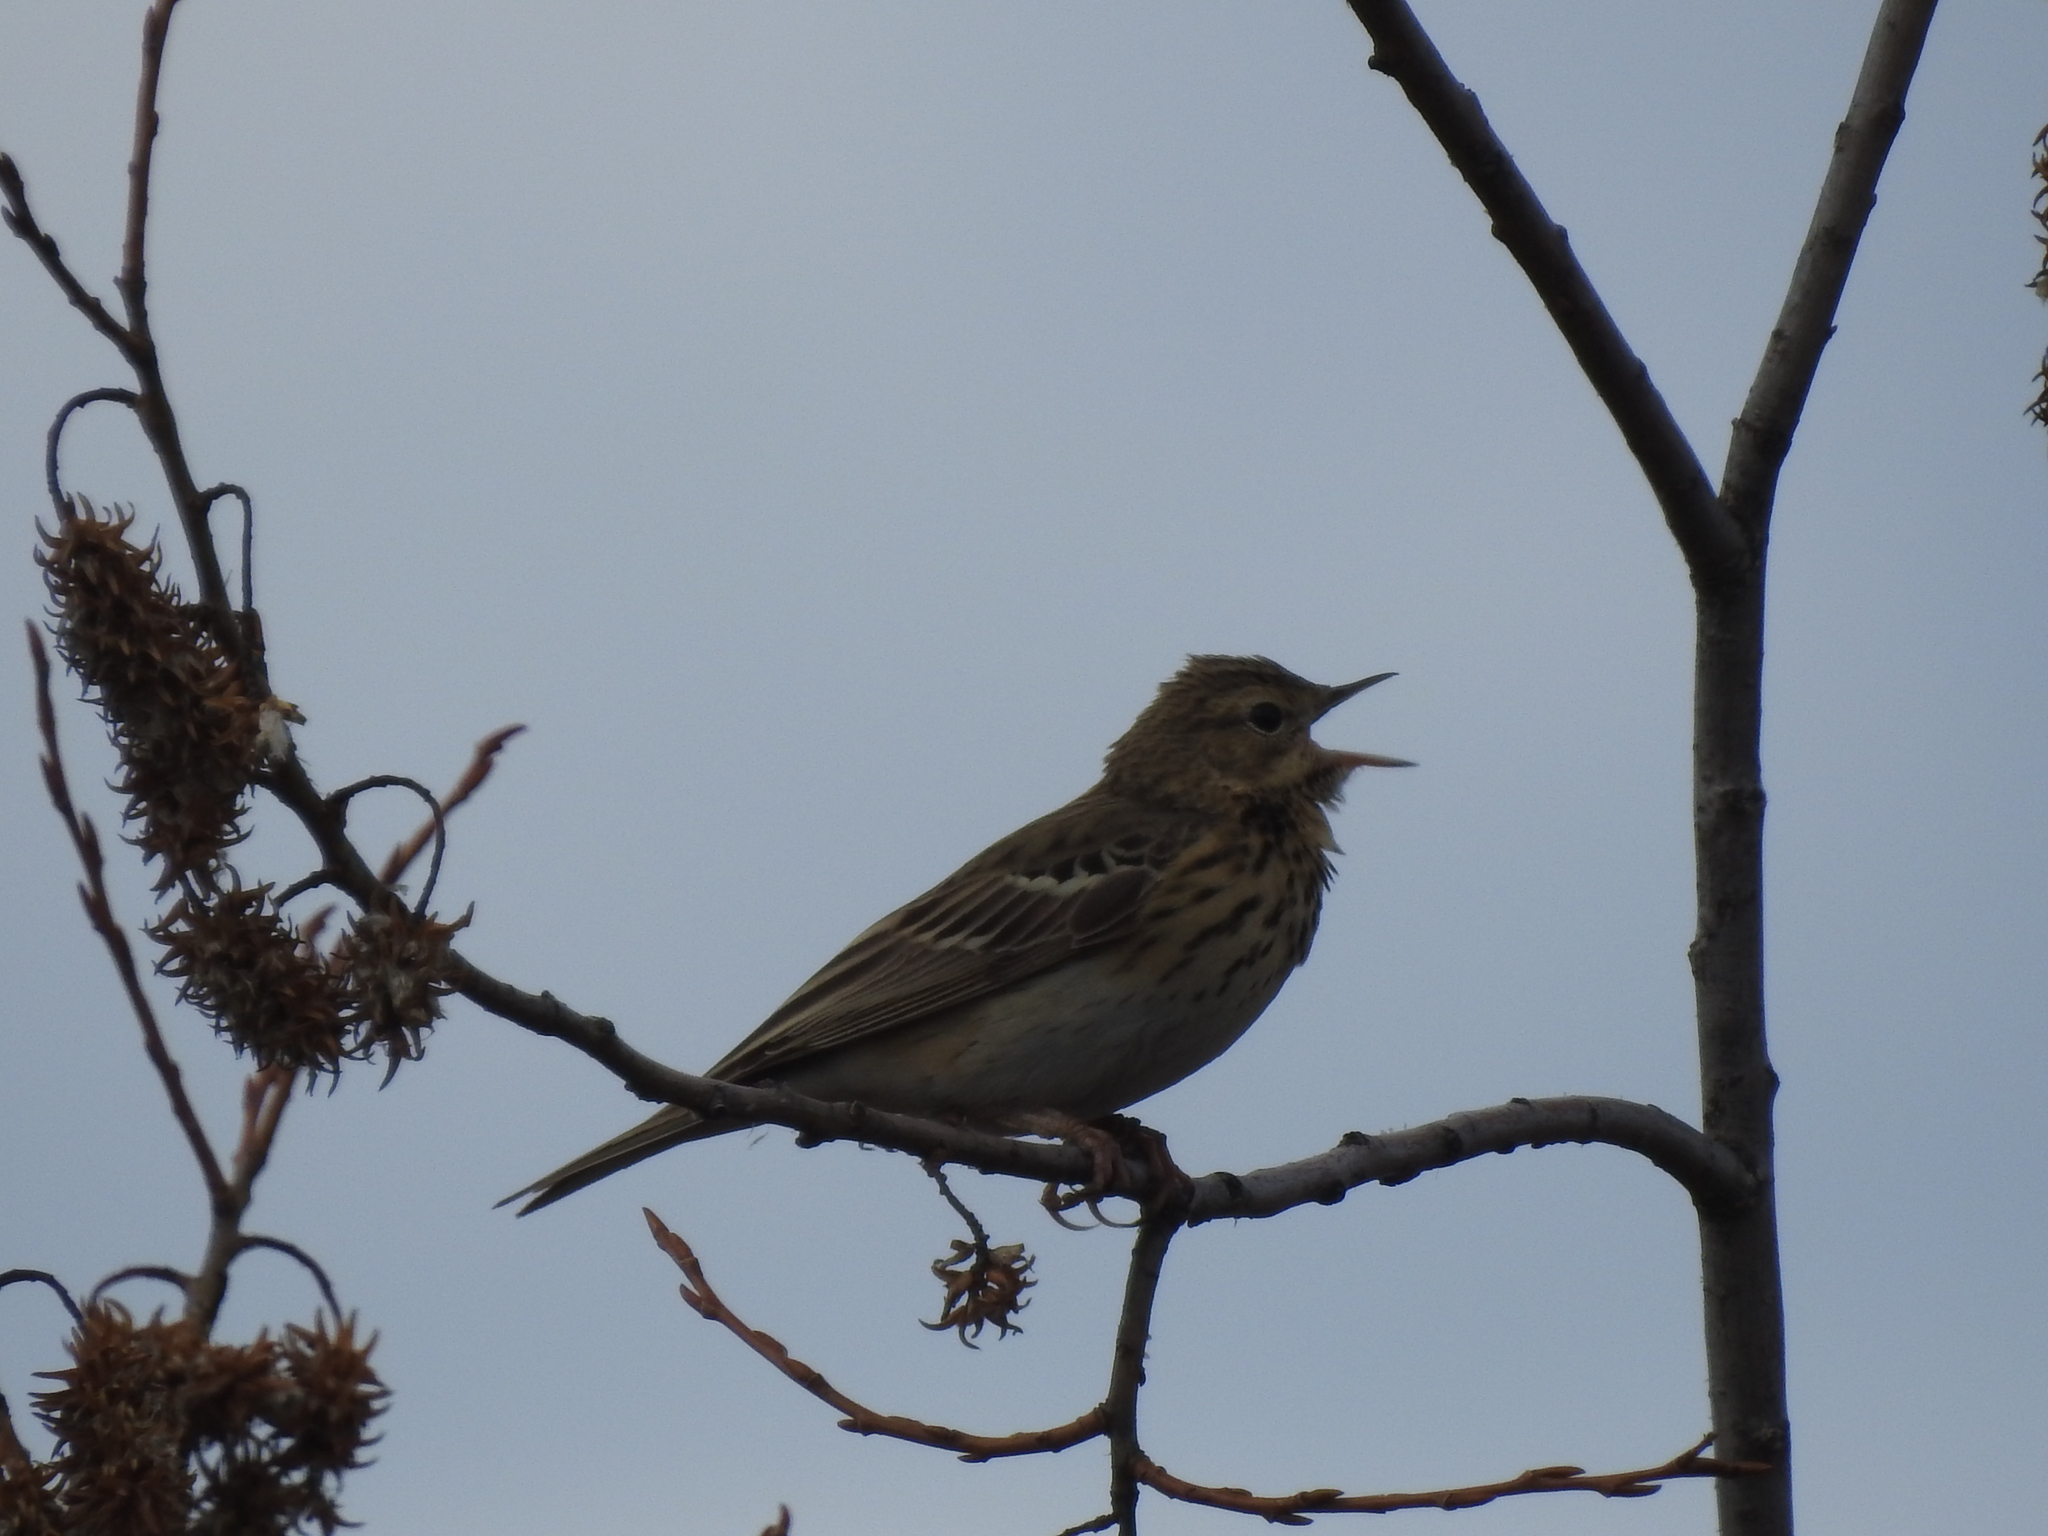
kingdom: Animalia
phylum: Chordata
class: Aves
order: Passeriformes
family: Motacillidae
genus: Anthus
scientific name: Anthus trivialis
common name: Tree pipit
